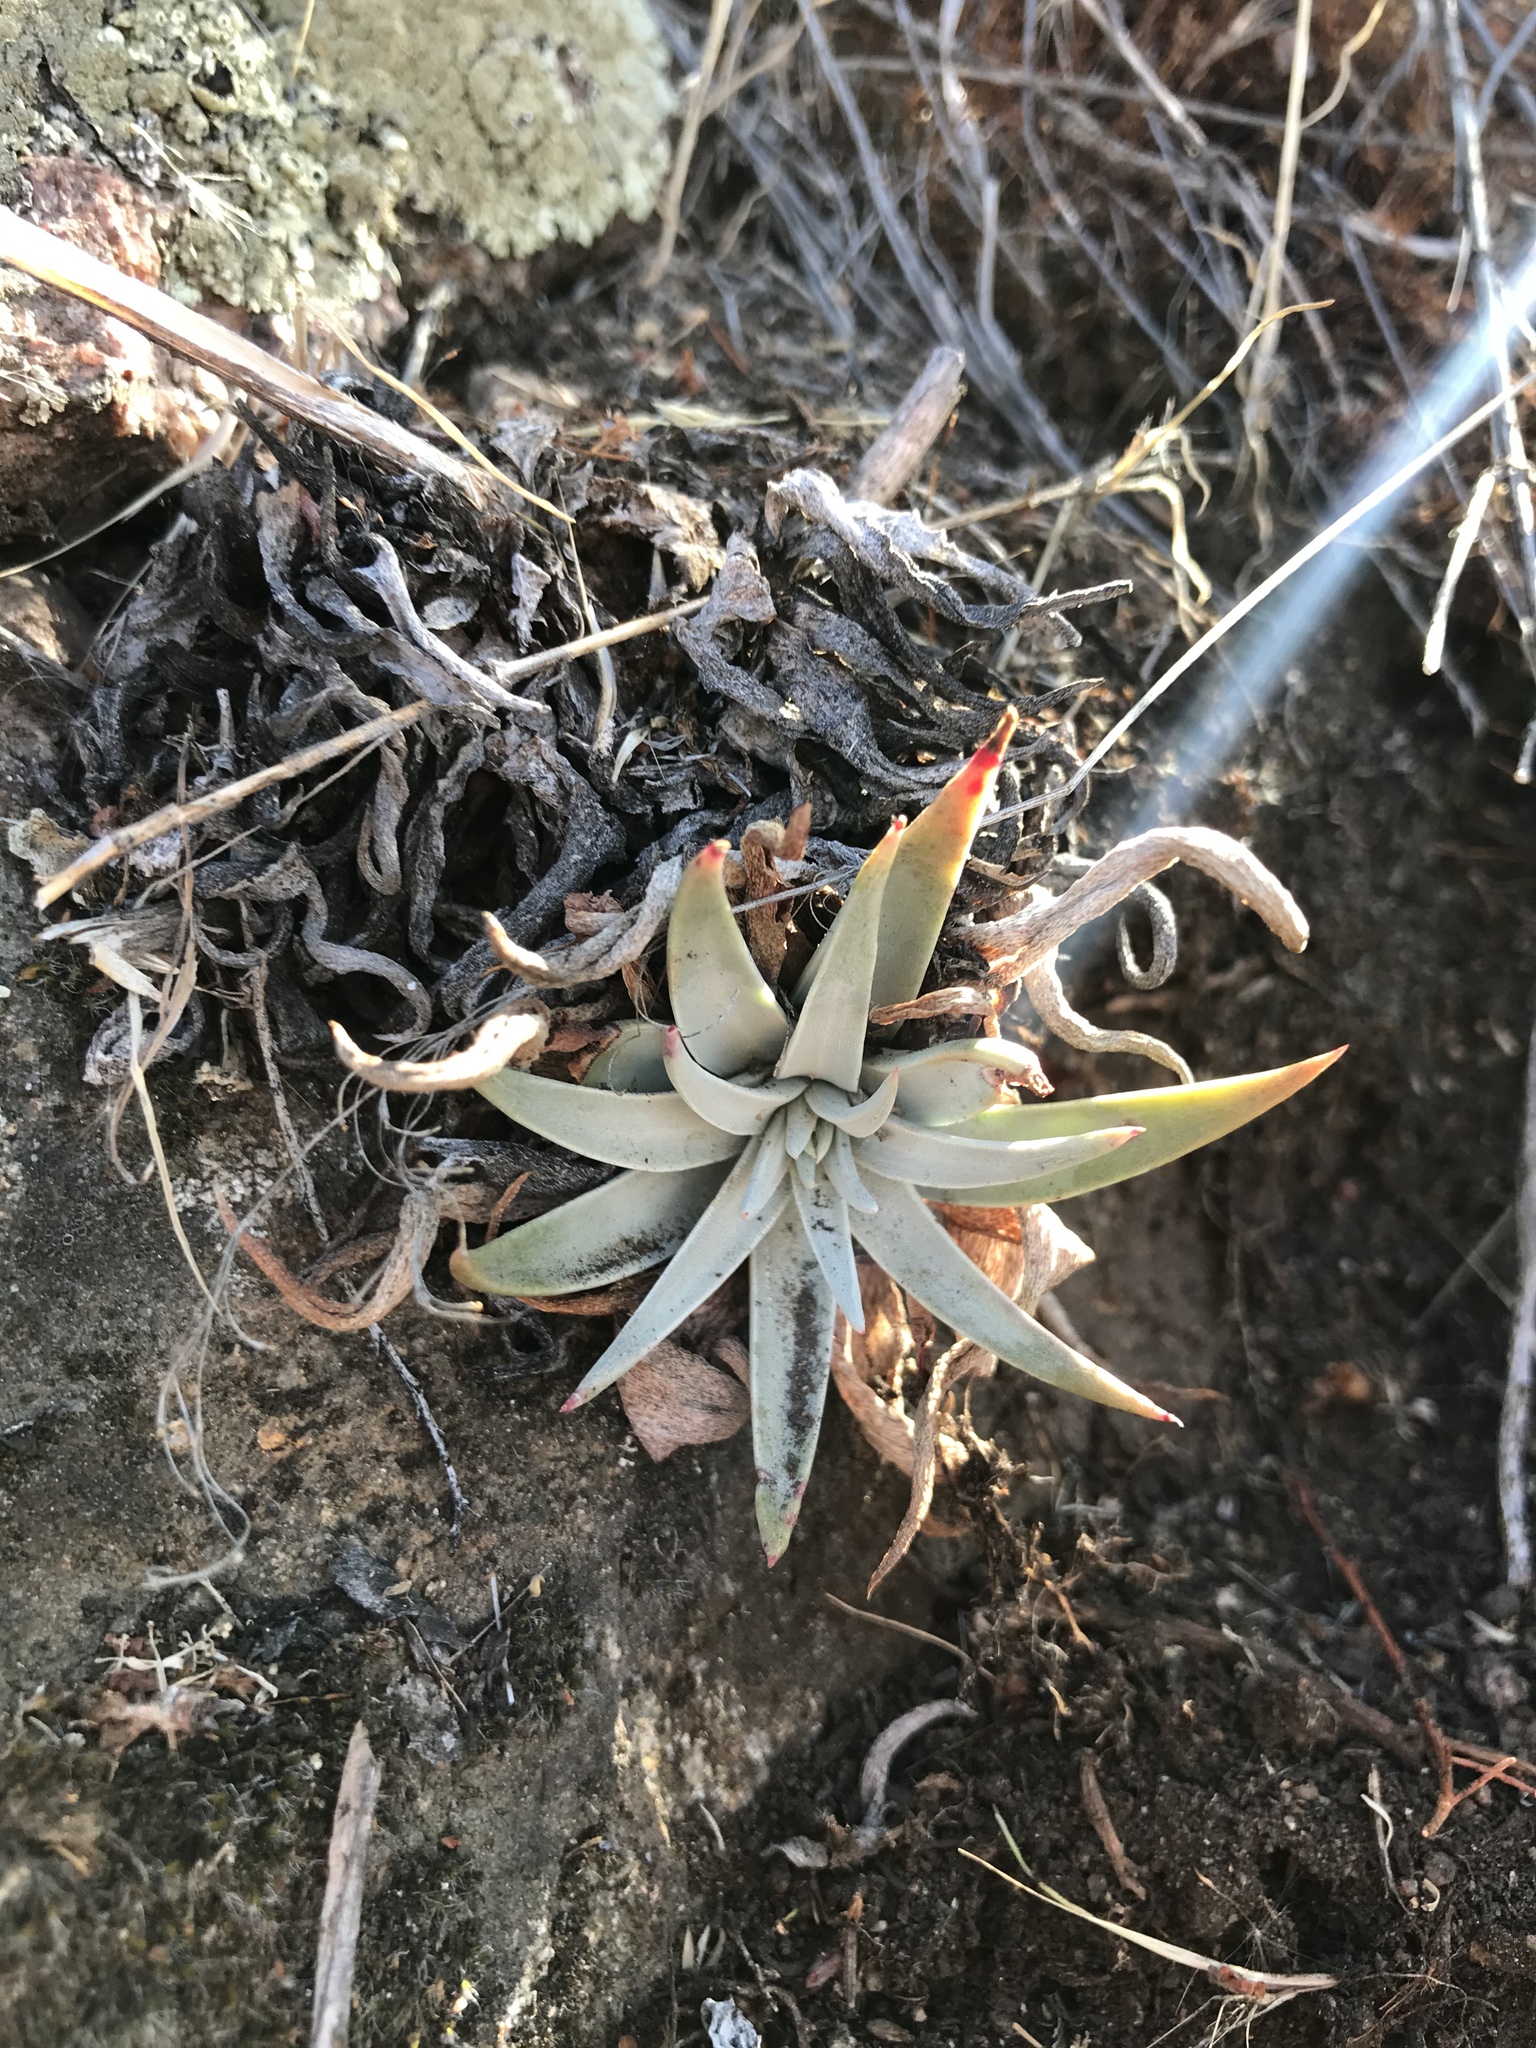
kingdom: Plantae
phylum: Tracheophyta
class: Magnoliopsida
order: Saxifragales
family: Crassulaceae
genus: Dudleya
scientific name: Dudleya saxosa
